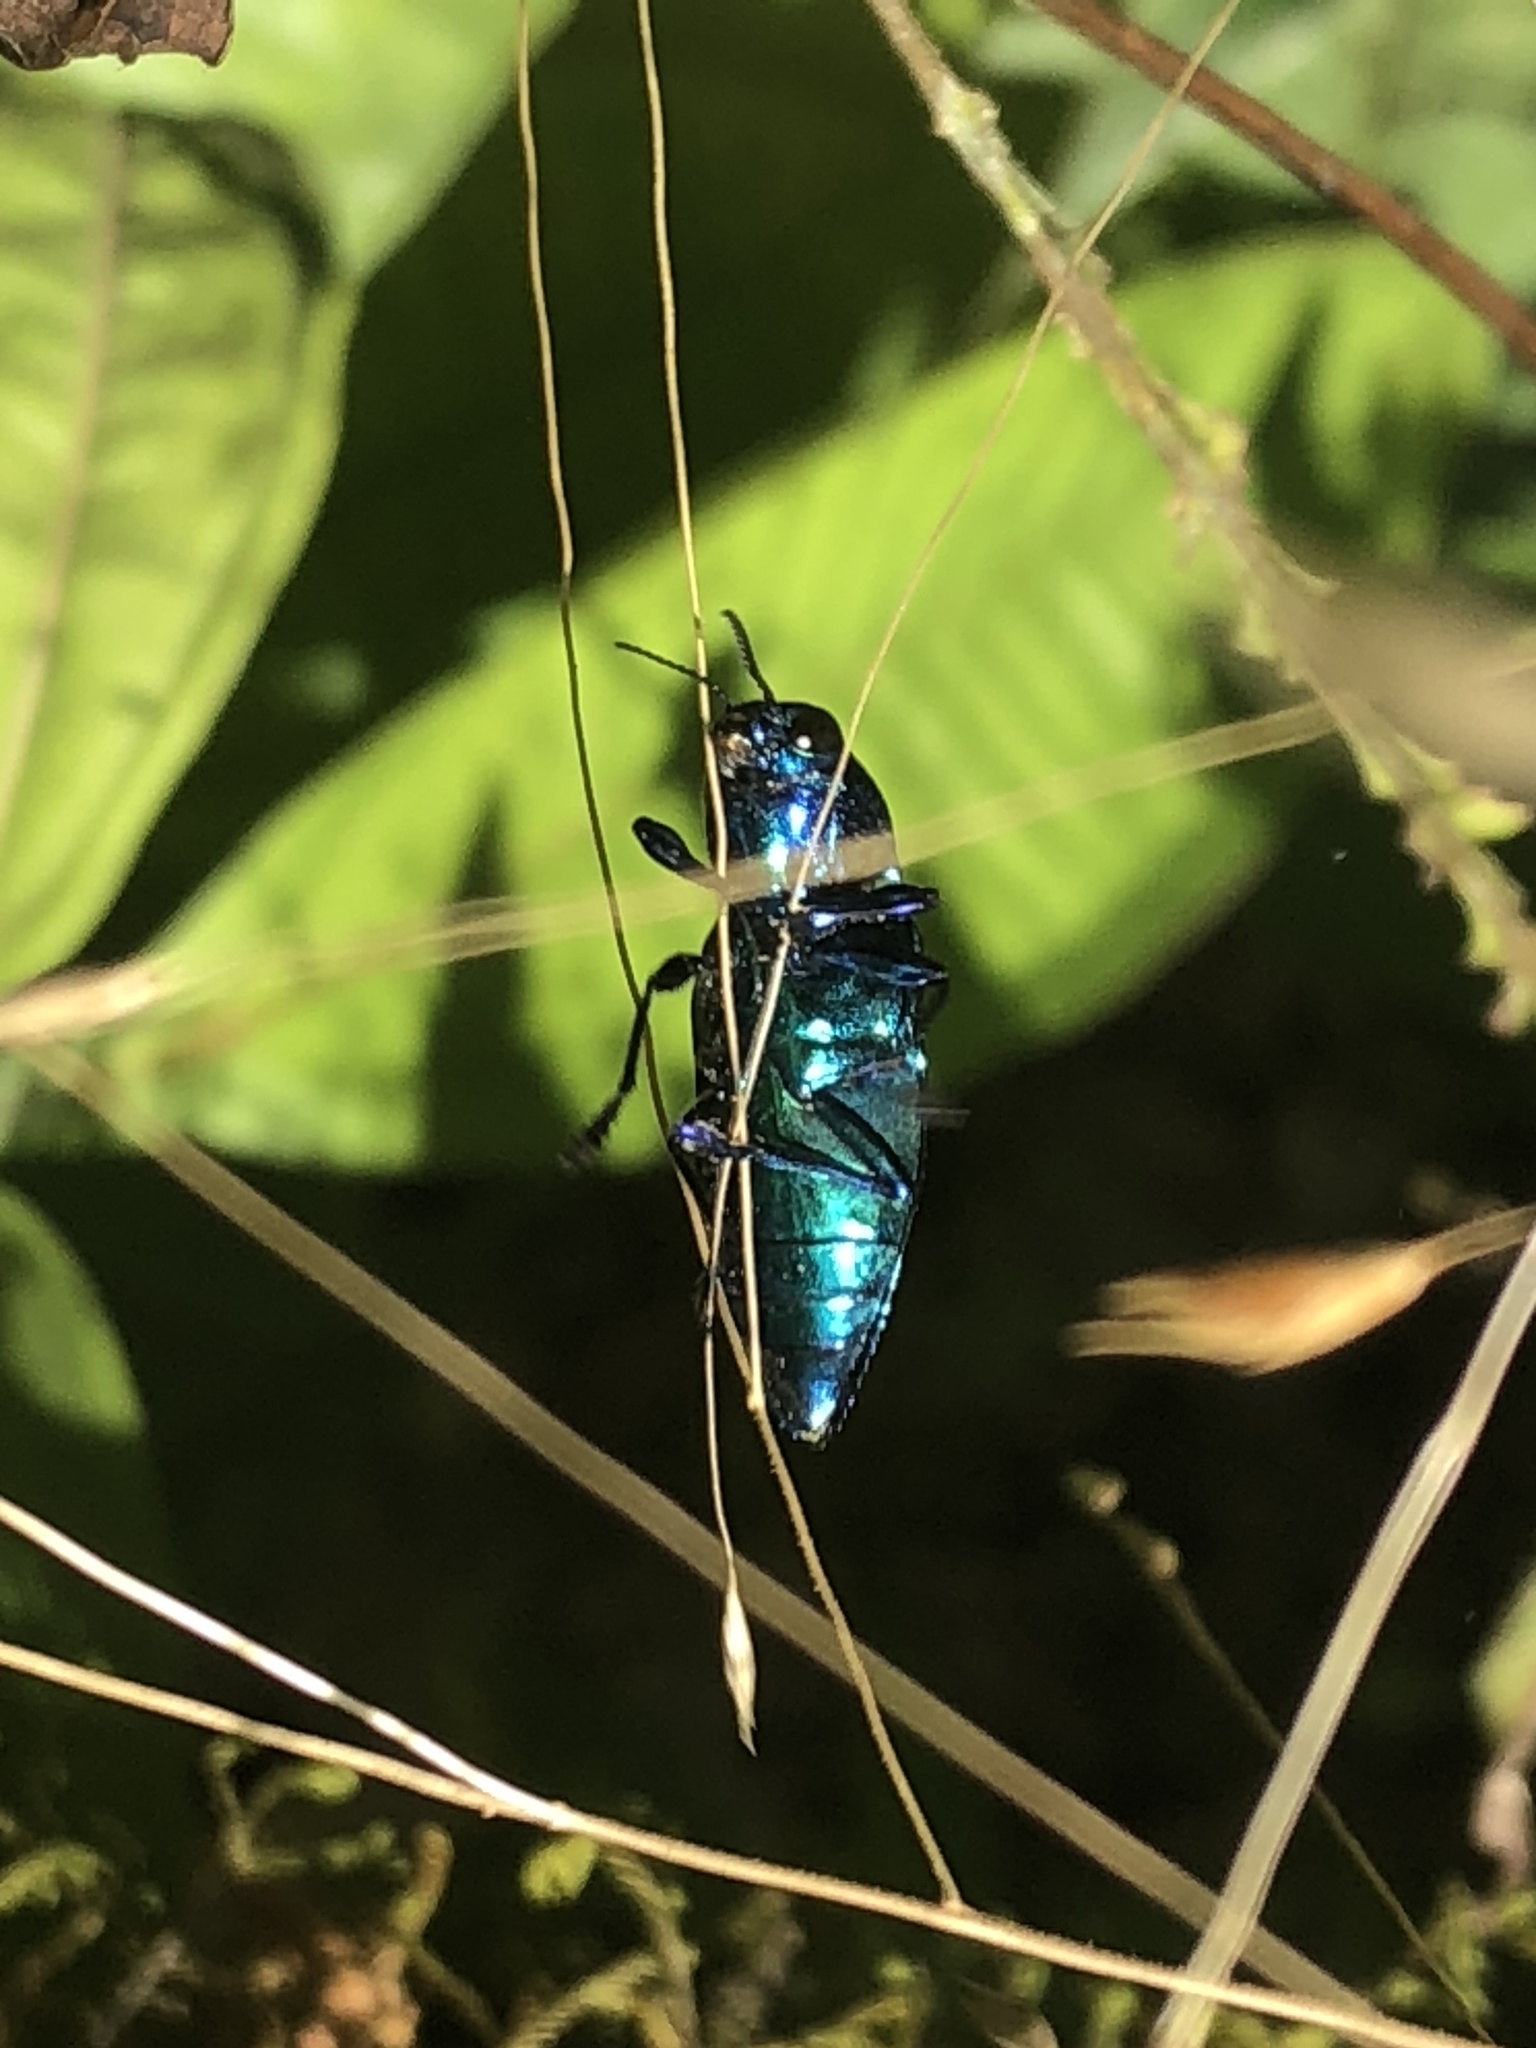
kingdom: Animalia
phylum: Arthropoda
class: Insecta
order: Coleoptera
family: Buprestidae
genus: Halecia
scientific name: Halecia cyanea
